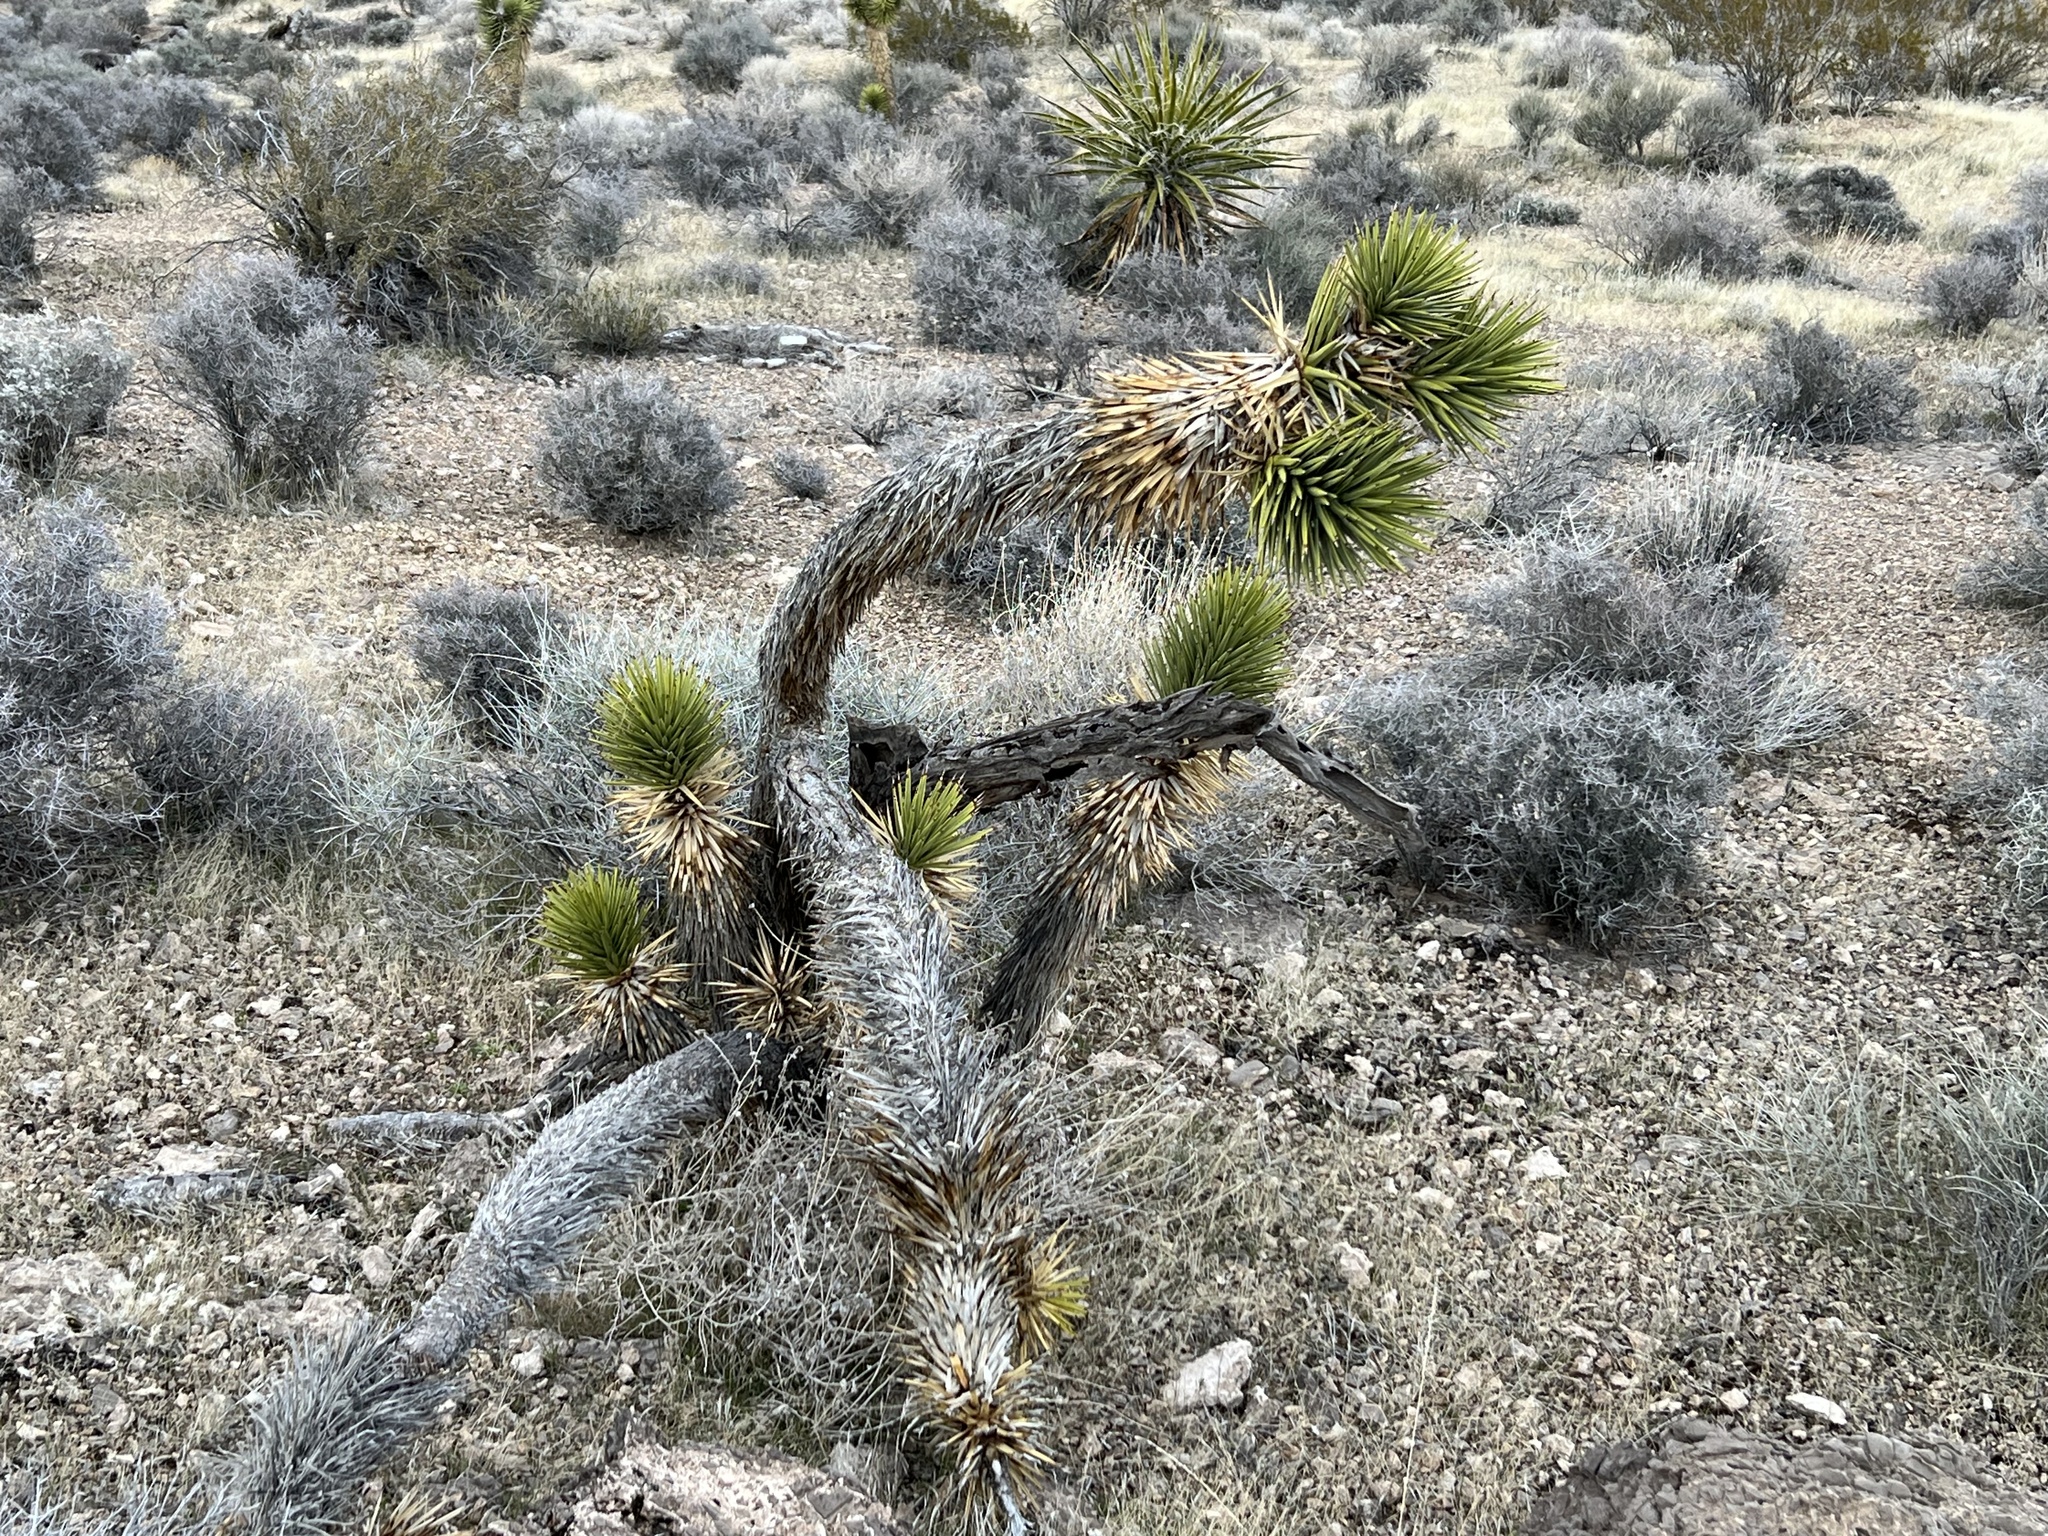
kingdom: Plantae
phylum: Tracheophyta
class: Liliopsida
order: Asparagales
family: Asparagaceae
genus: Yucca
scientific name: Yucca brevifolia
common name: Joshua tree
